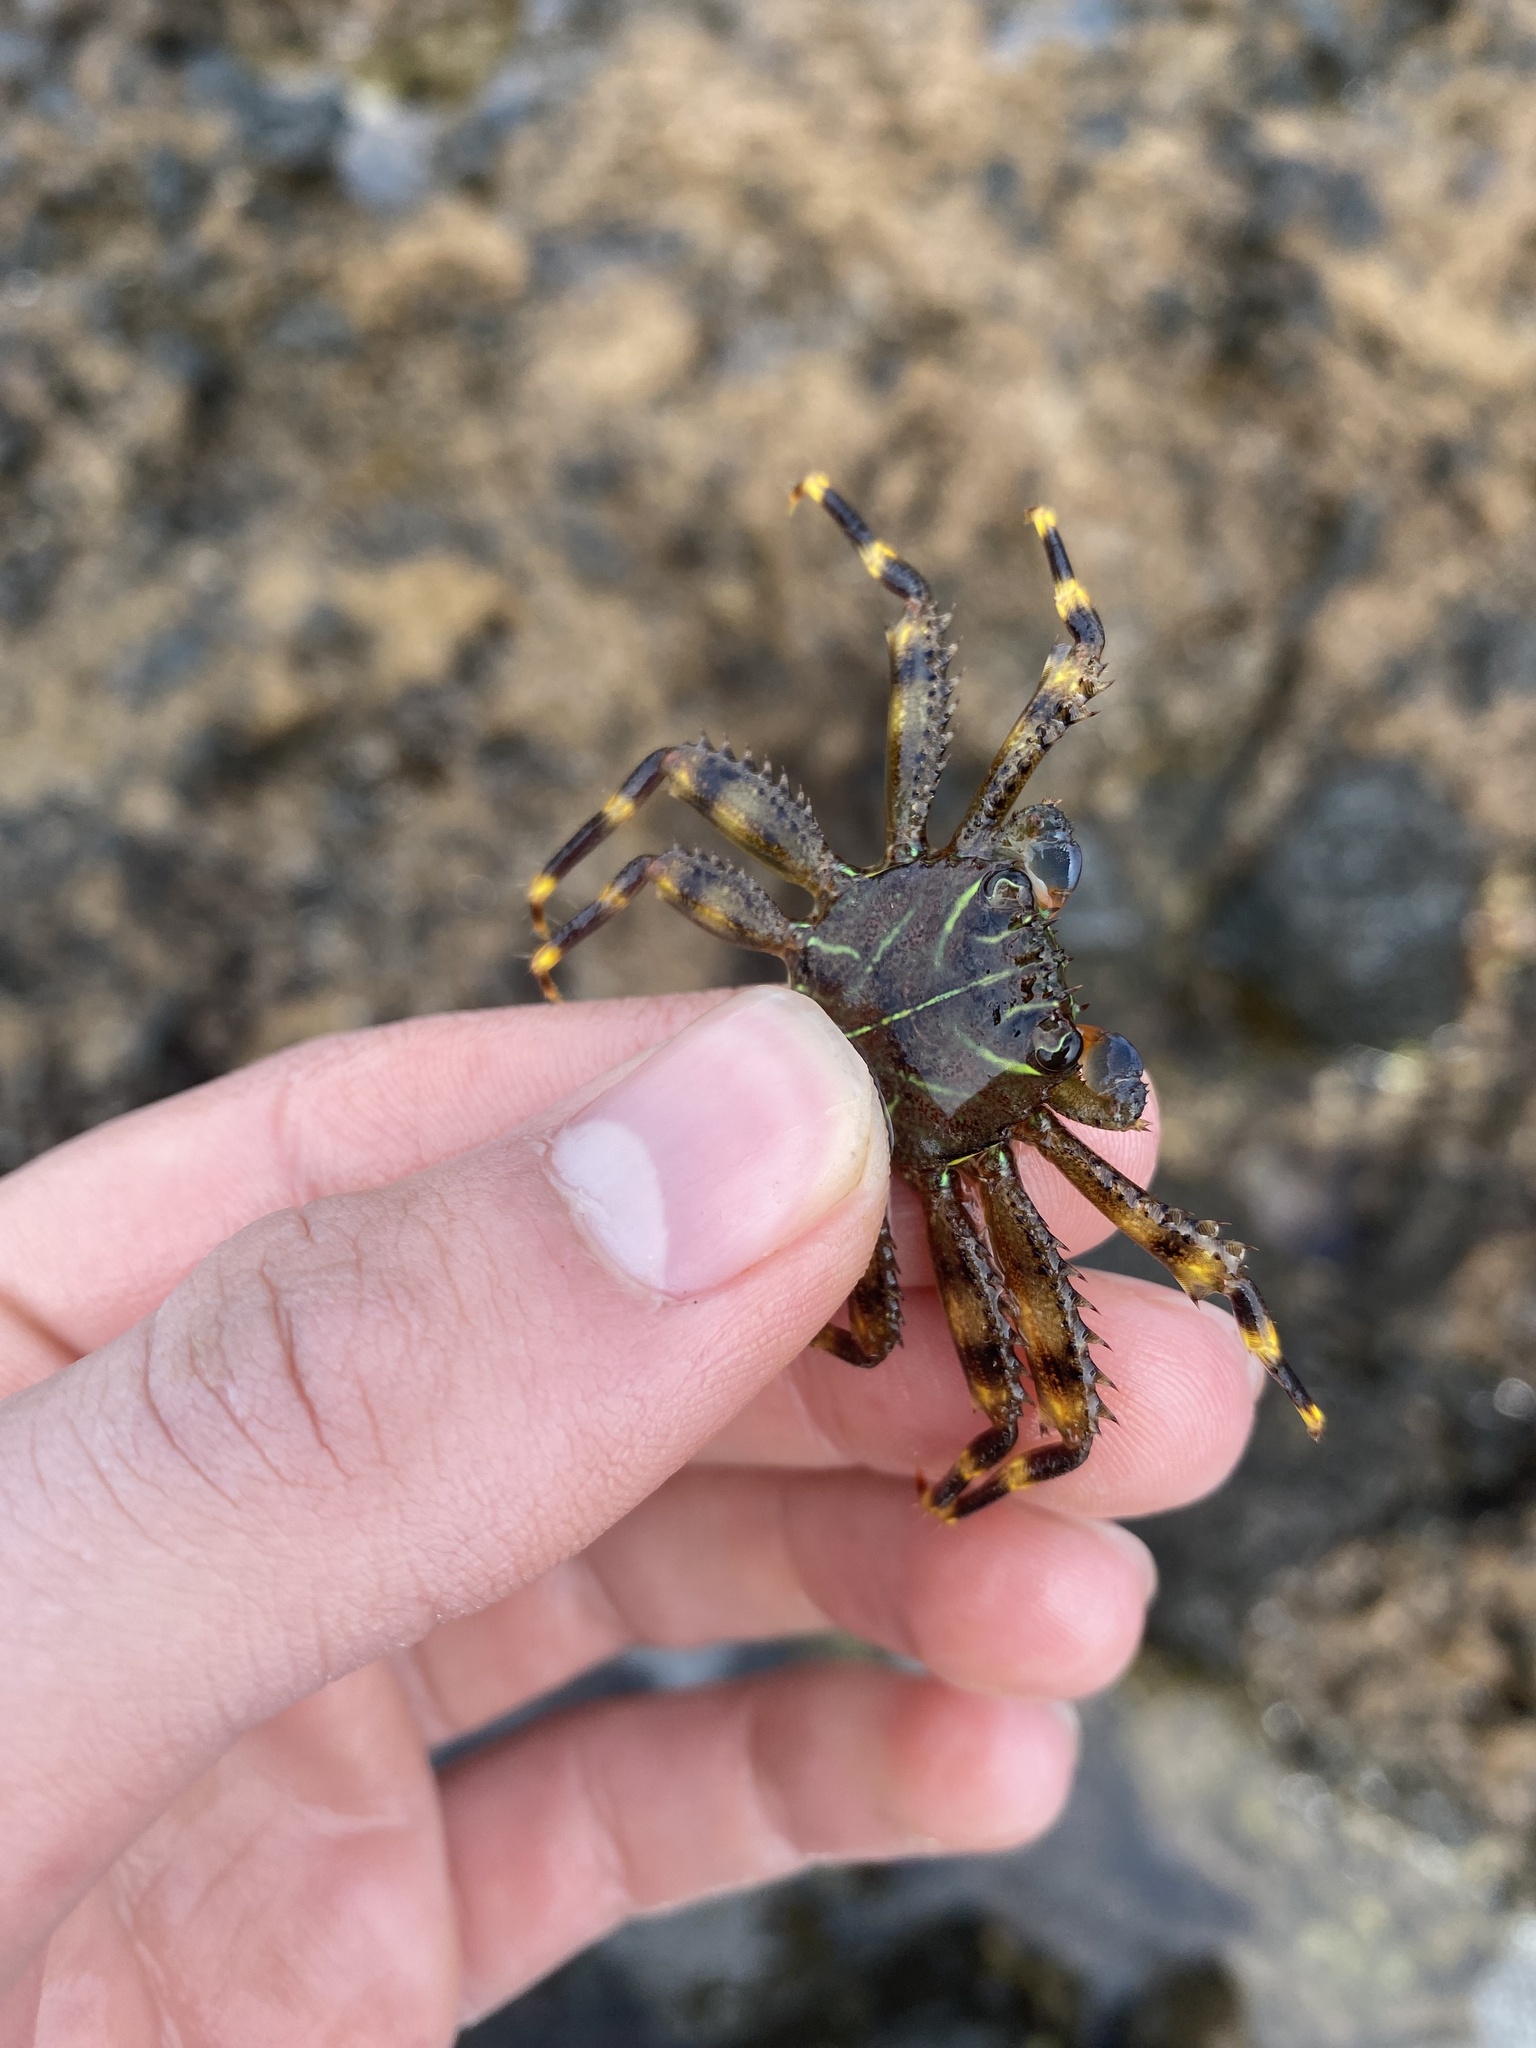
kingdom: Animalia
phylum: Arthropoda
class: Malacostraca
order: Decapoda
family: Percnidae
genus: Percnon
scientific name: Percnon planissimum
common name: Flat rock crab
